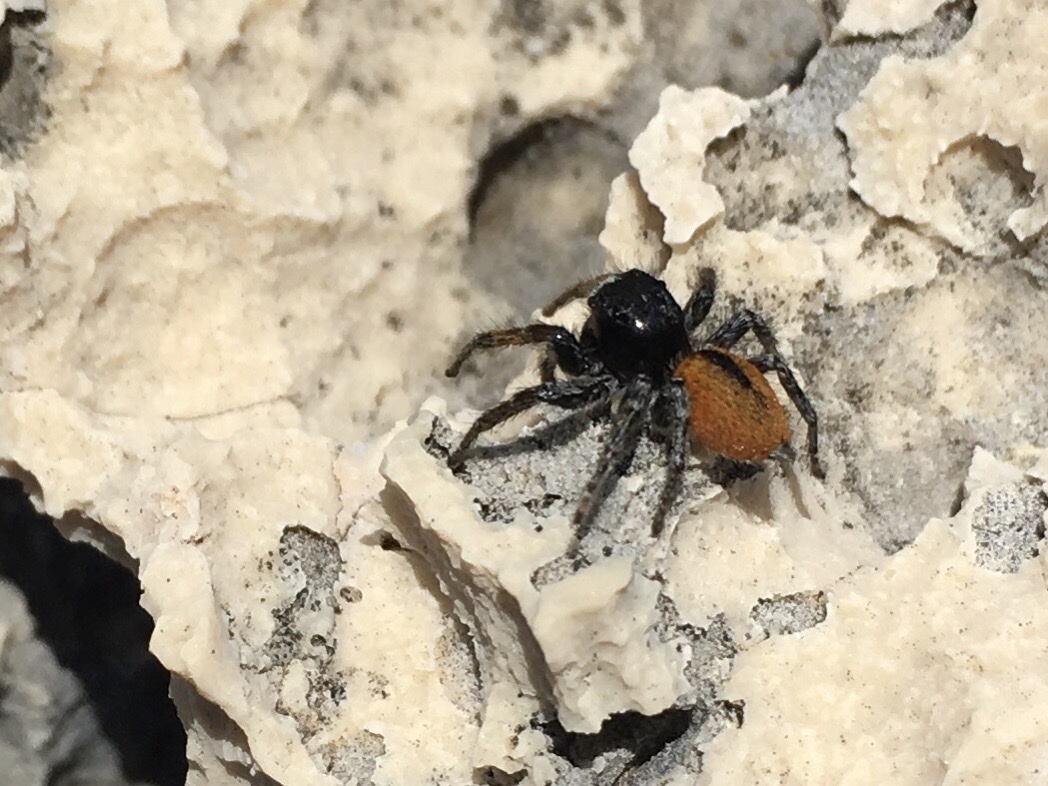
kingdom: Animalia
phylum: Arthropoda
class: Arachnida
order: Araneae
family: Salticidae
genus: Philaeus
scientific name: Philaeus chrysops
